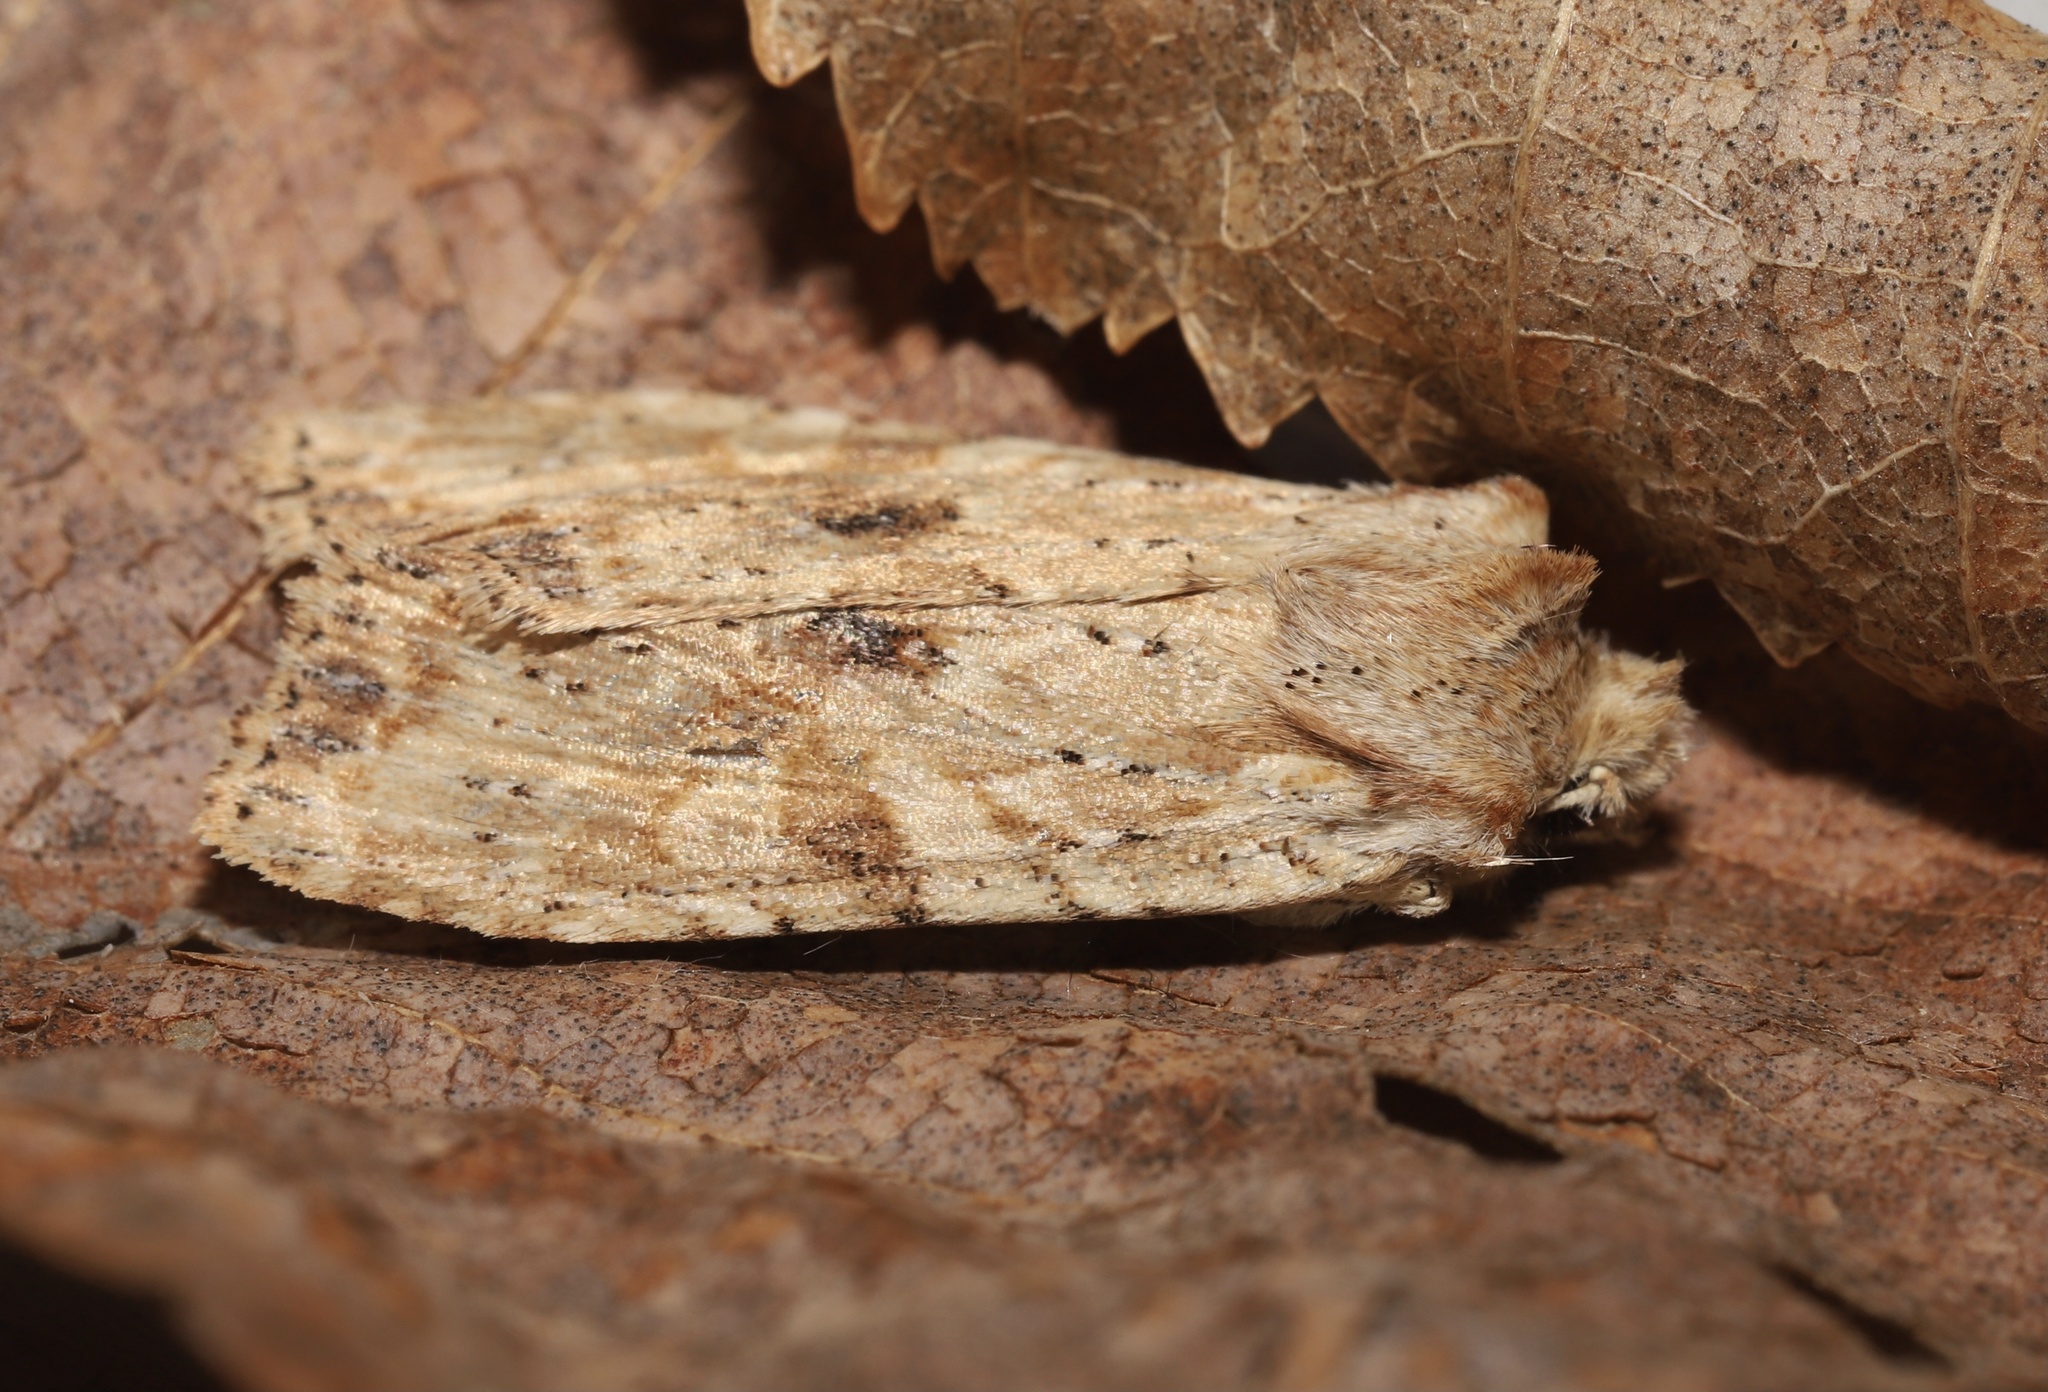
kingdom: Animalia
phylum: Arthropoda
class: Insecta
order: Lepidoptera
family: Noctuidae
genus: Lithophane
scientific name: Lithophane bethunei
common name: Bethune's pinion moth
